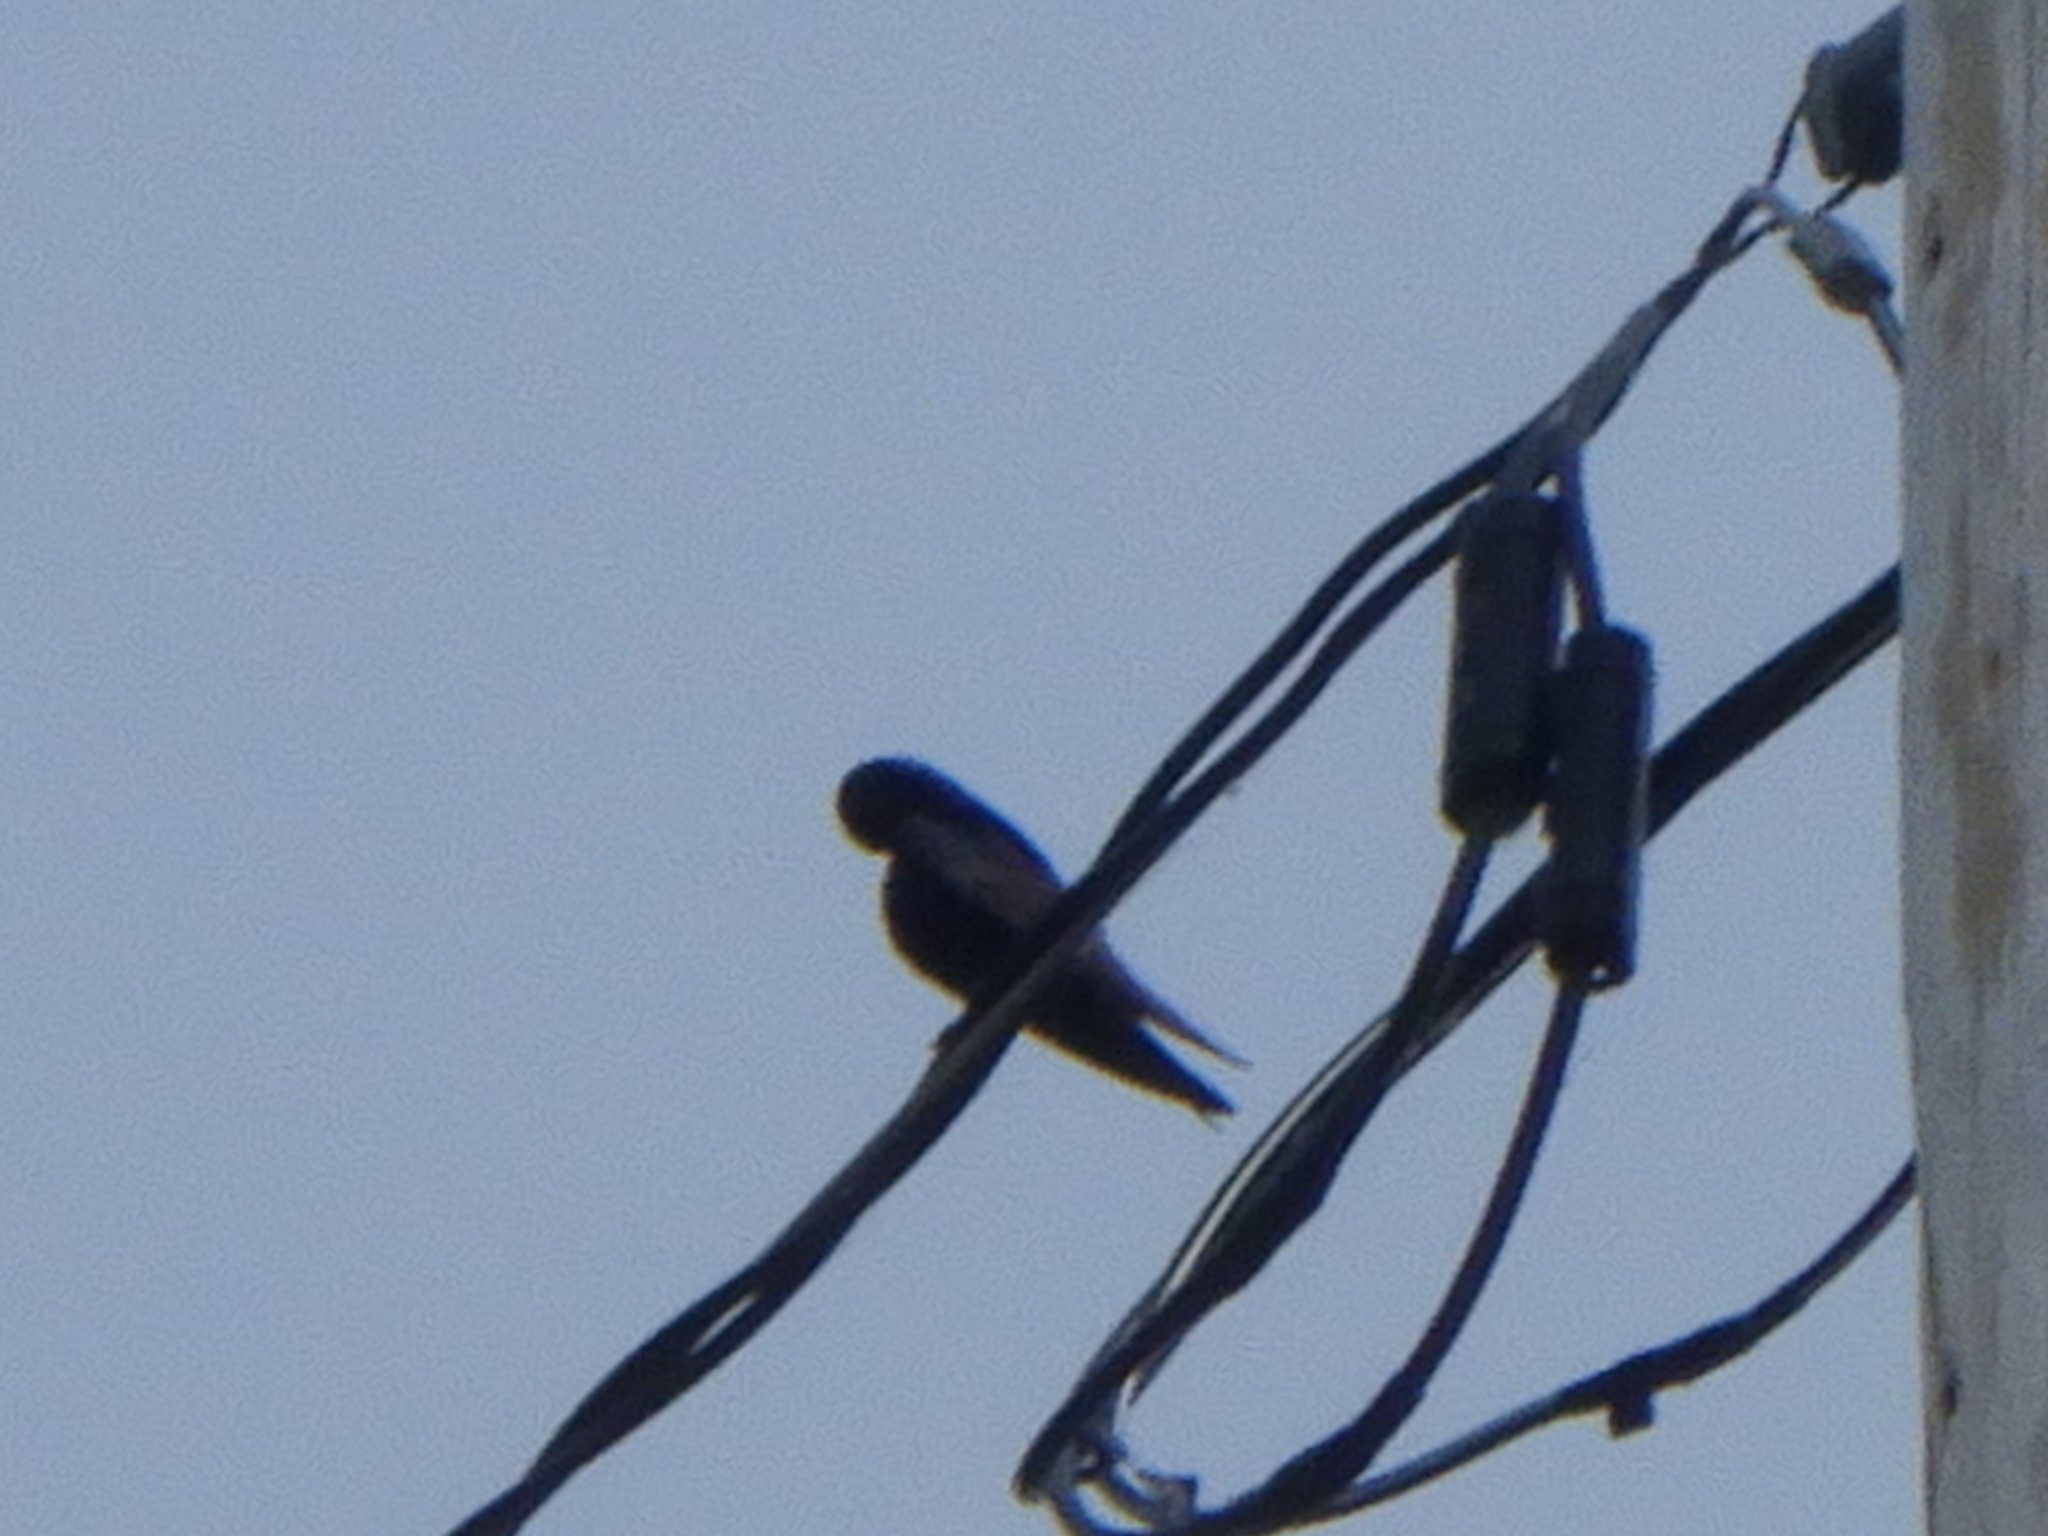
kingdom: Animalia
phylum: Chordata
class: Aves
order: Passeriformes
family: Hirundinidae
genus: Progne
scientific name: Progne subis
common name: Purple martin
